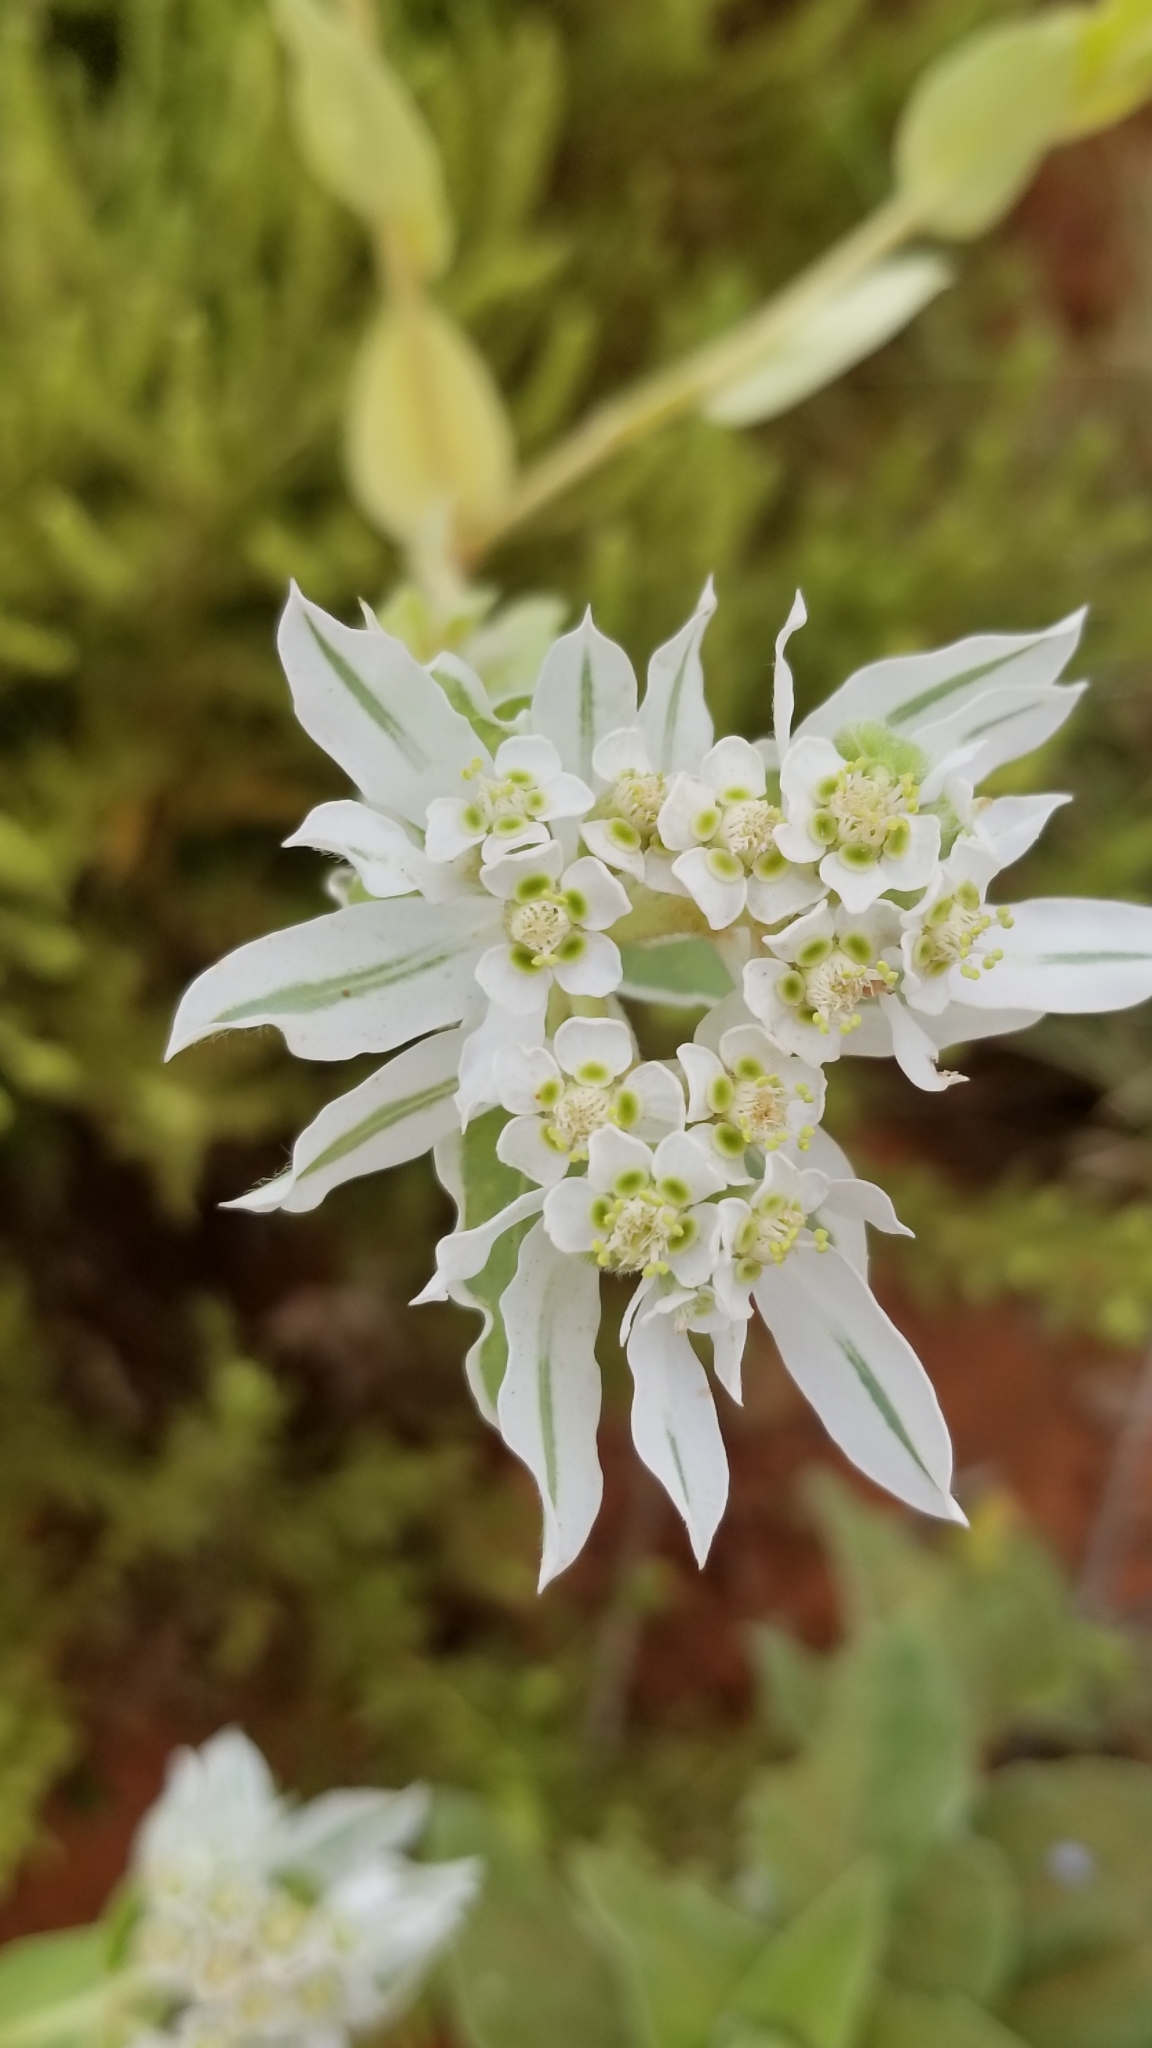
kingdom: Plantae
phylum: Tracheophyta
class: Magnoliopsida
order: Malpighiales
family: Euphorbiaceae
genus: Euphorbia
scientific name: Euphorbia marginata
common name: Ghostweed
